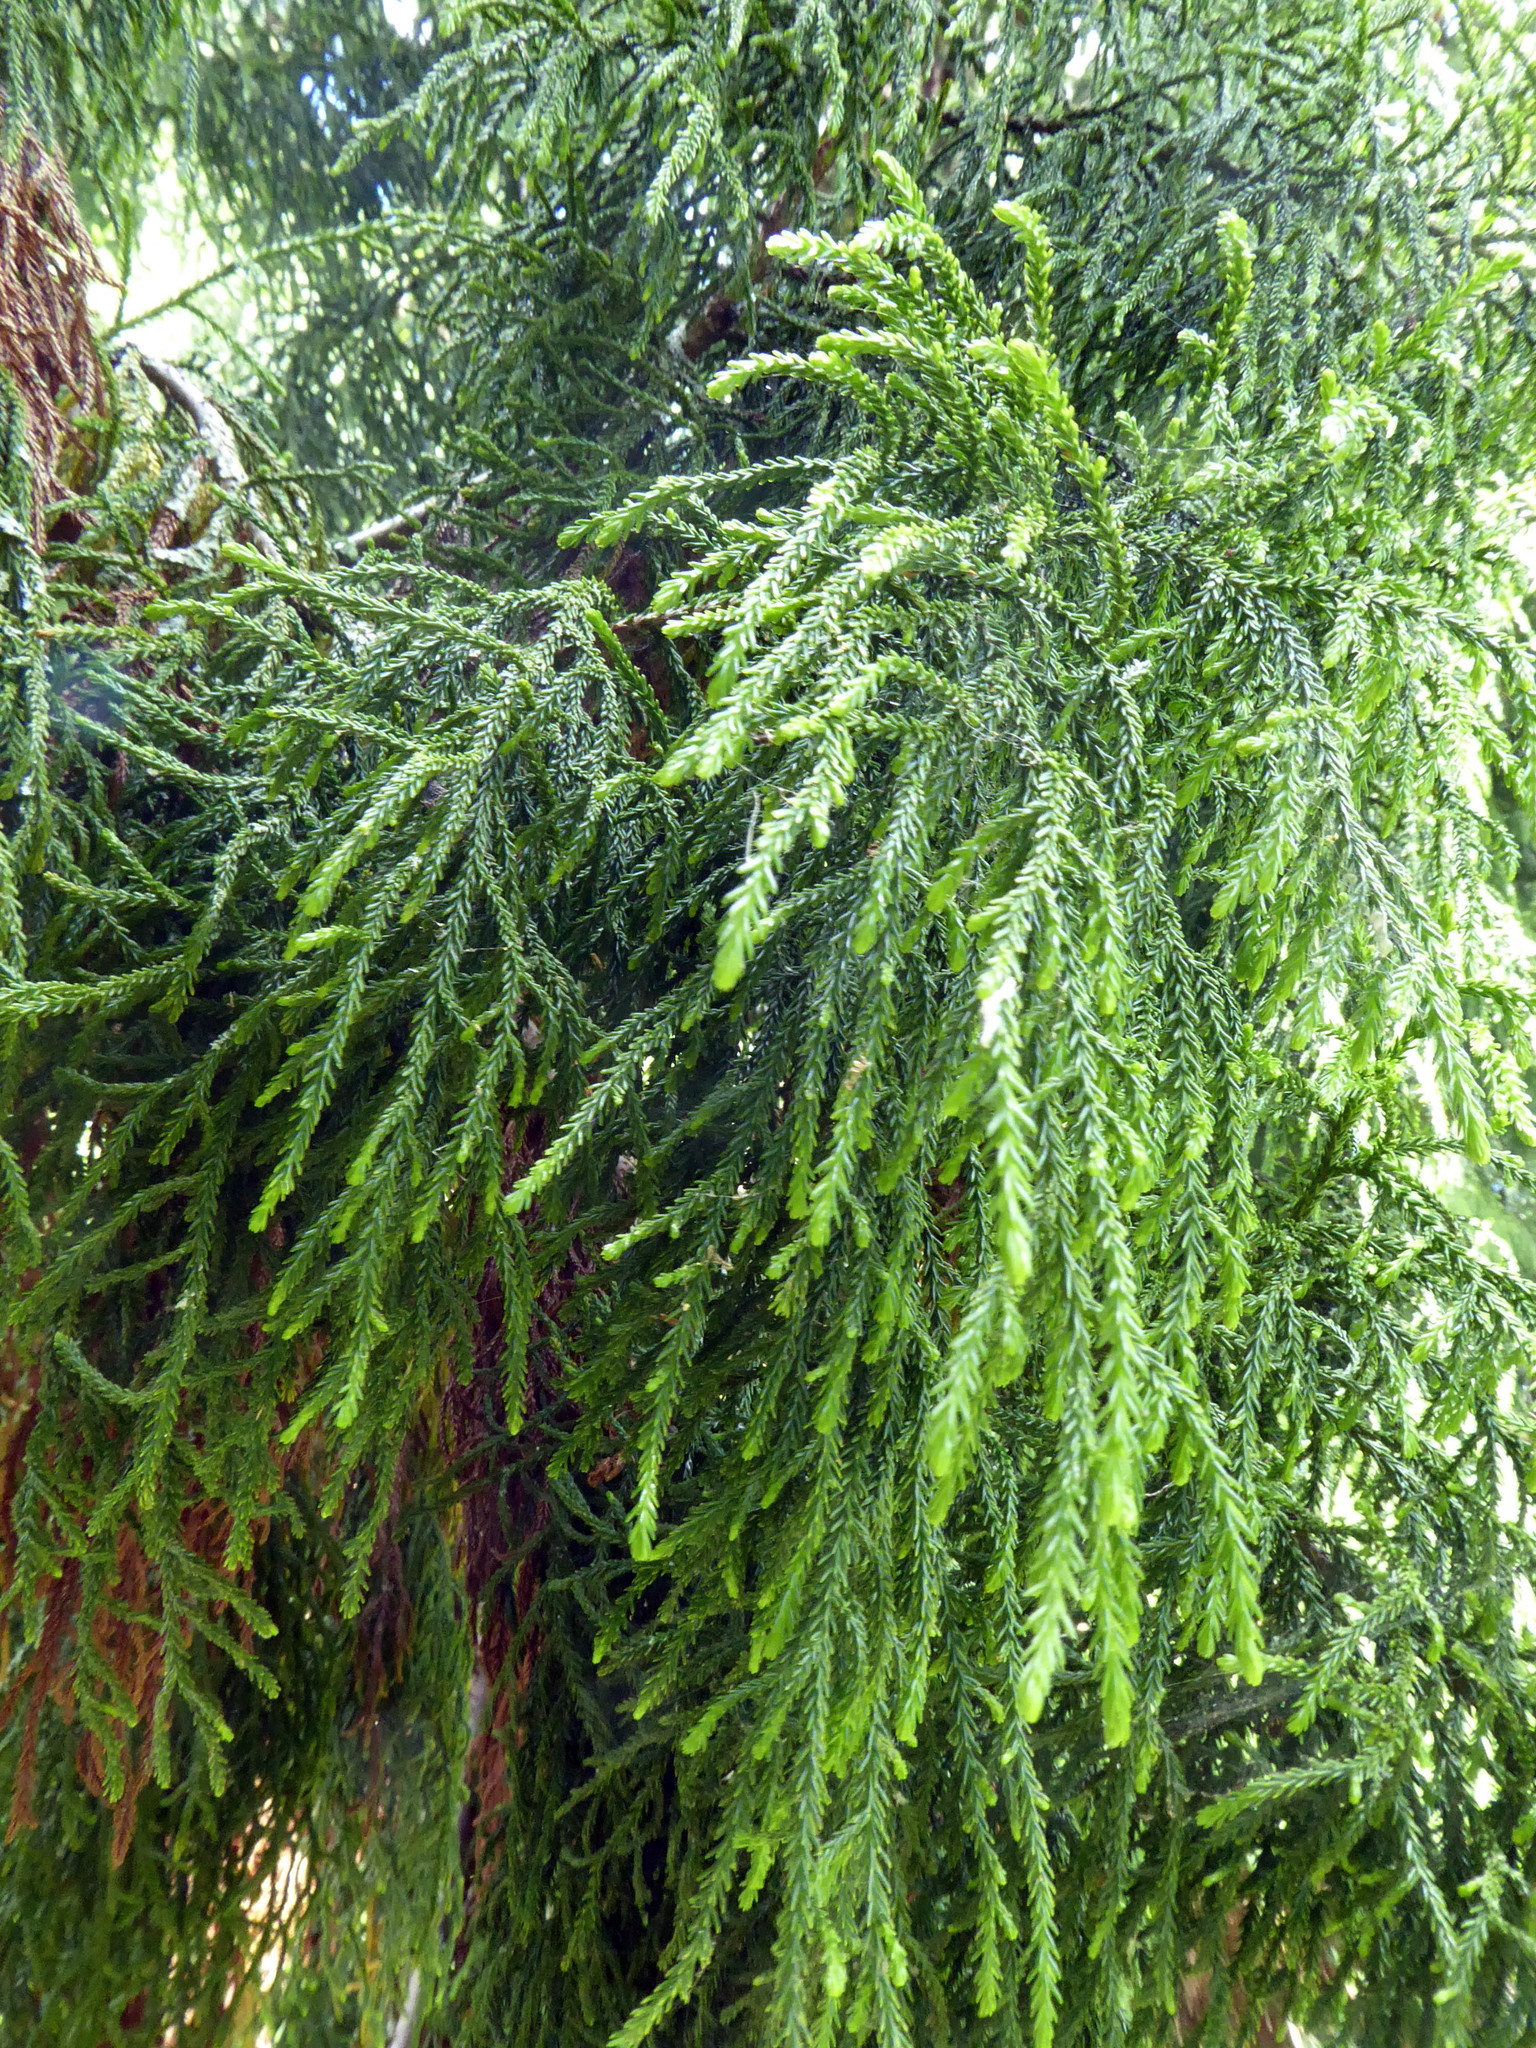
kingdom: Plantae
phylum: Tracheophyta
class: Pinopsida
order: Pinales
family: Podocarpaceae
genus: Dacrydium
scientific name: Dacrydium cupressinum
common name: Red pine
